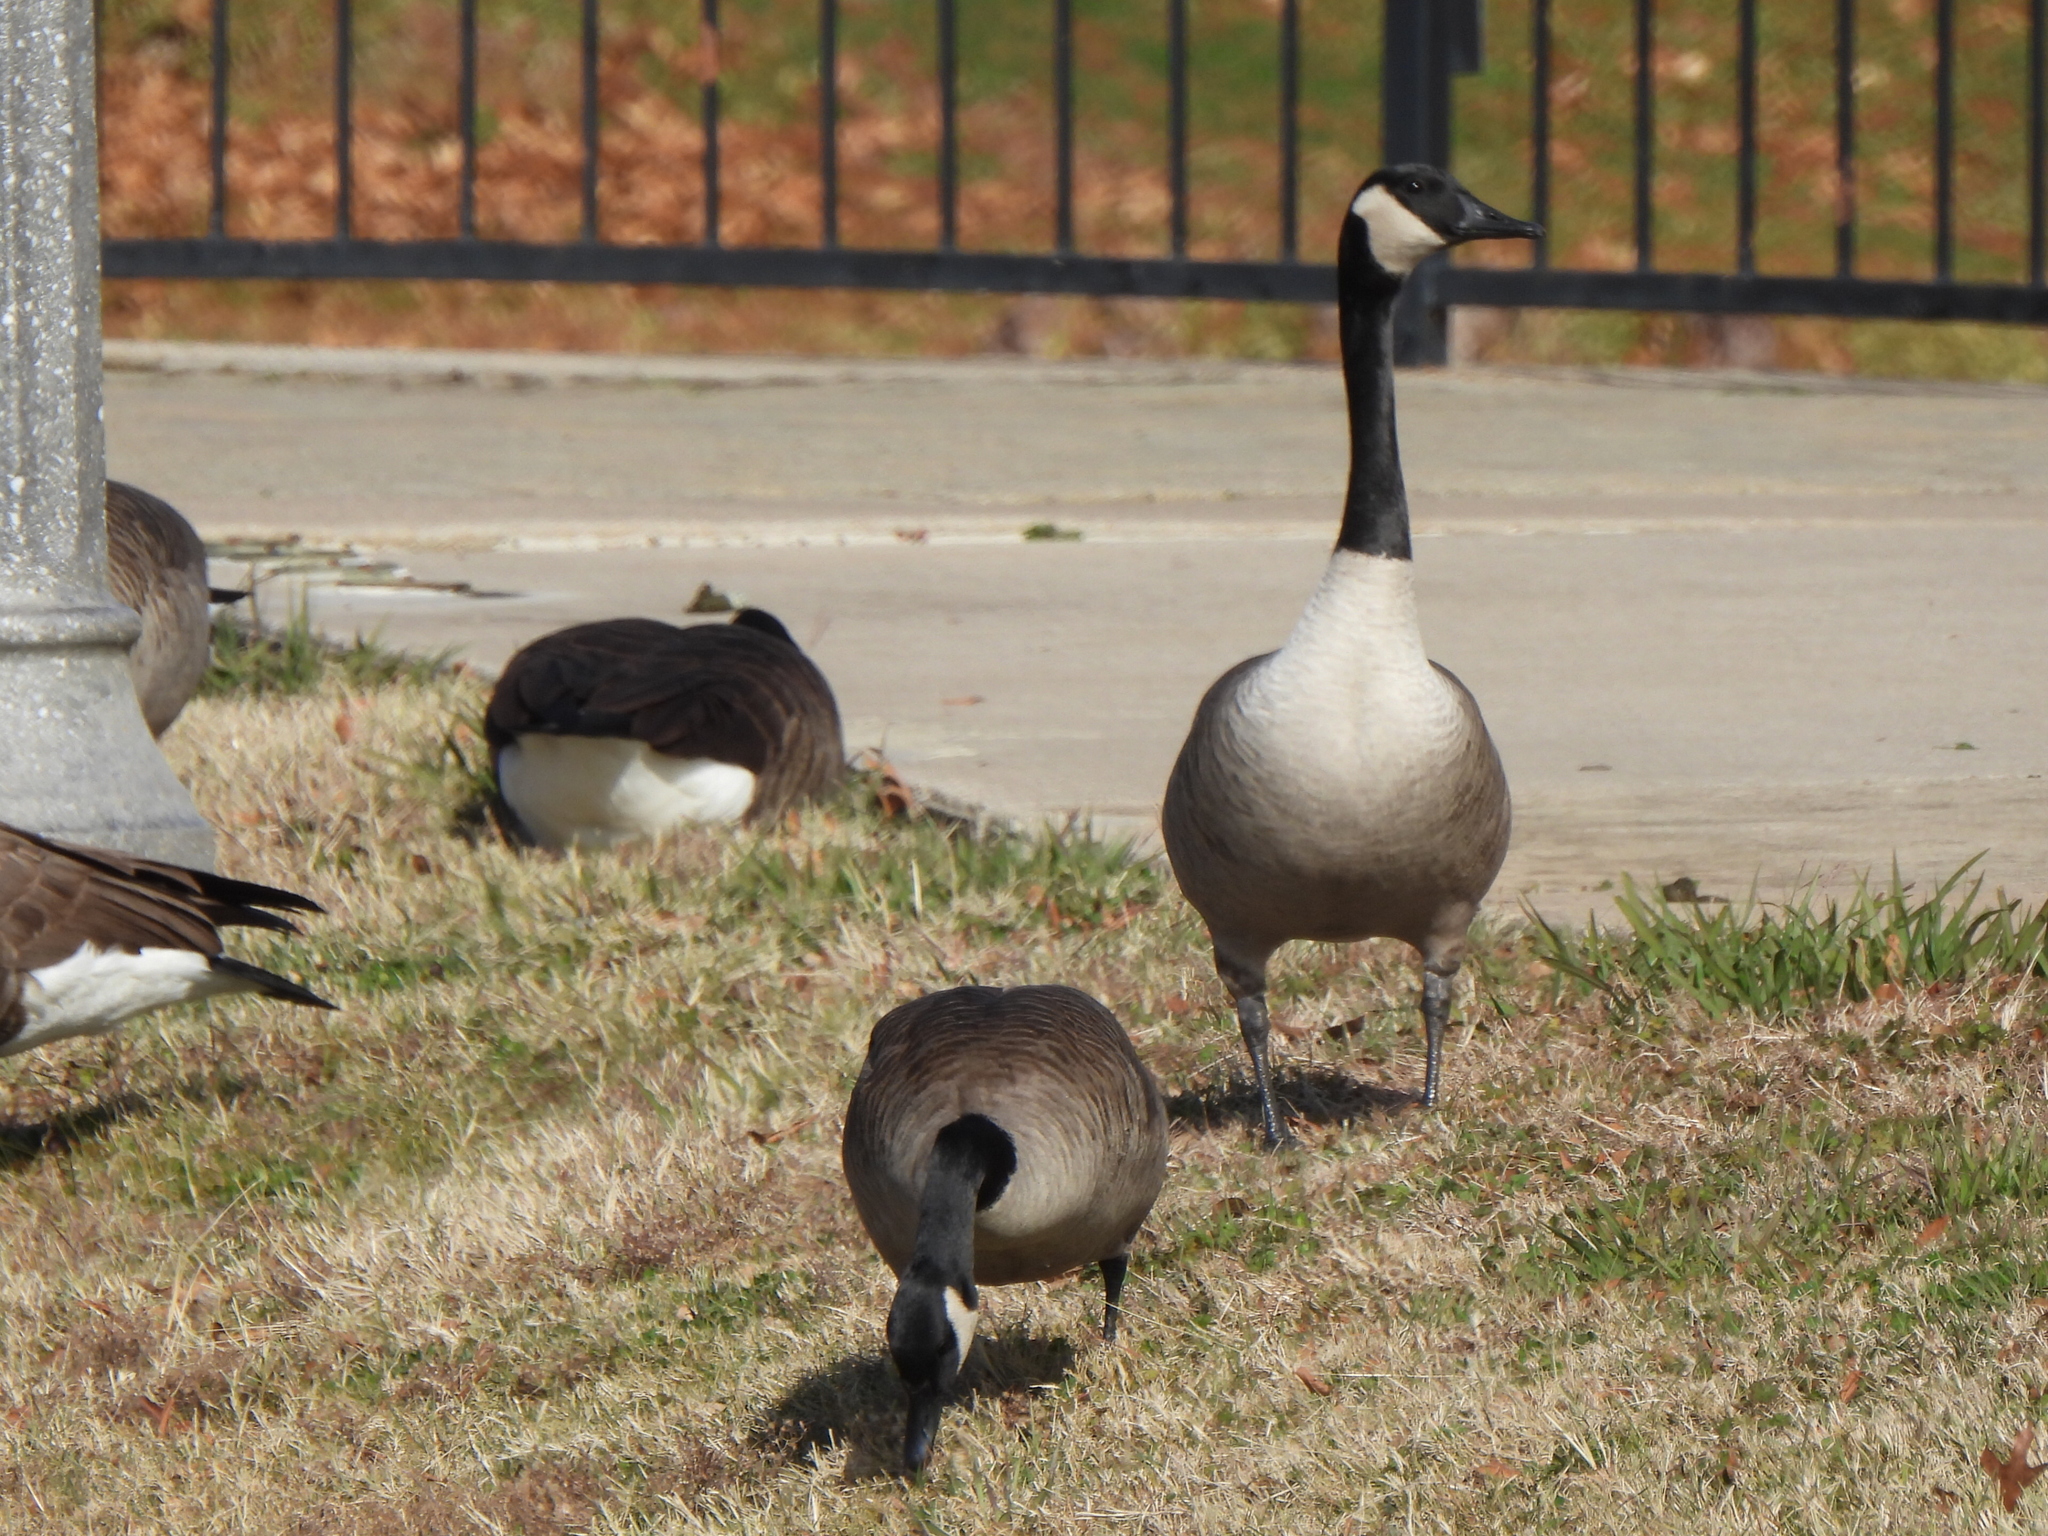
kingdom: Animalia
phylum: Chordata
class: Aves
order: Anseriformes
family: Anatidae
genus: Branta
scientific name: Branta canadensis
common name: Canada goose
